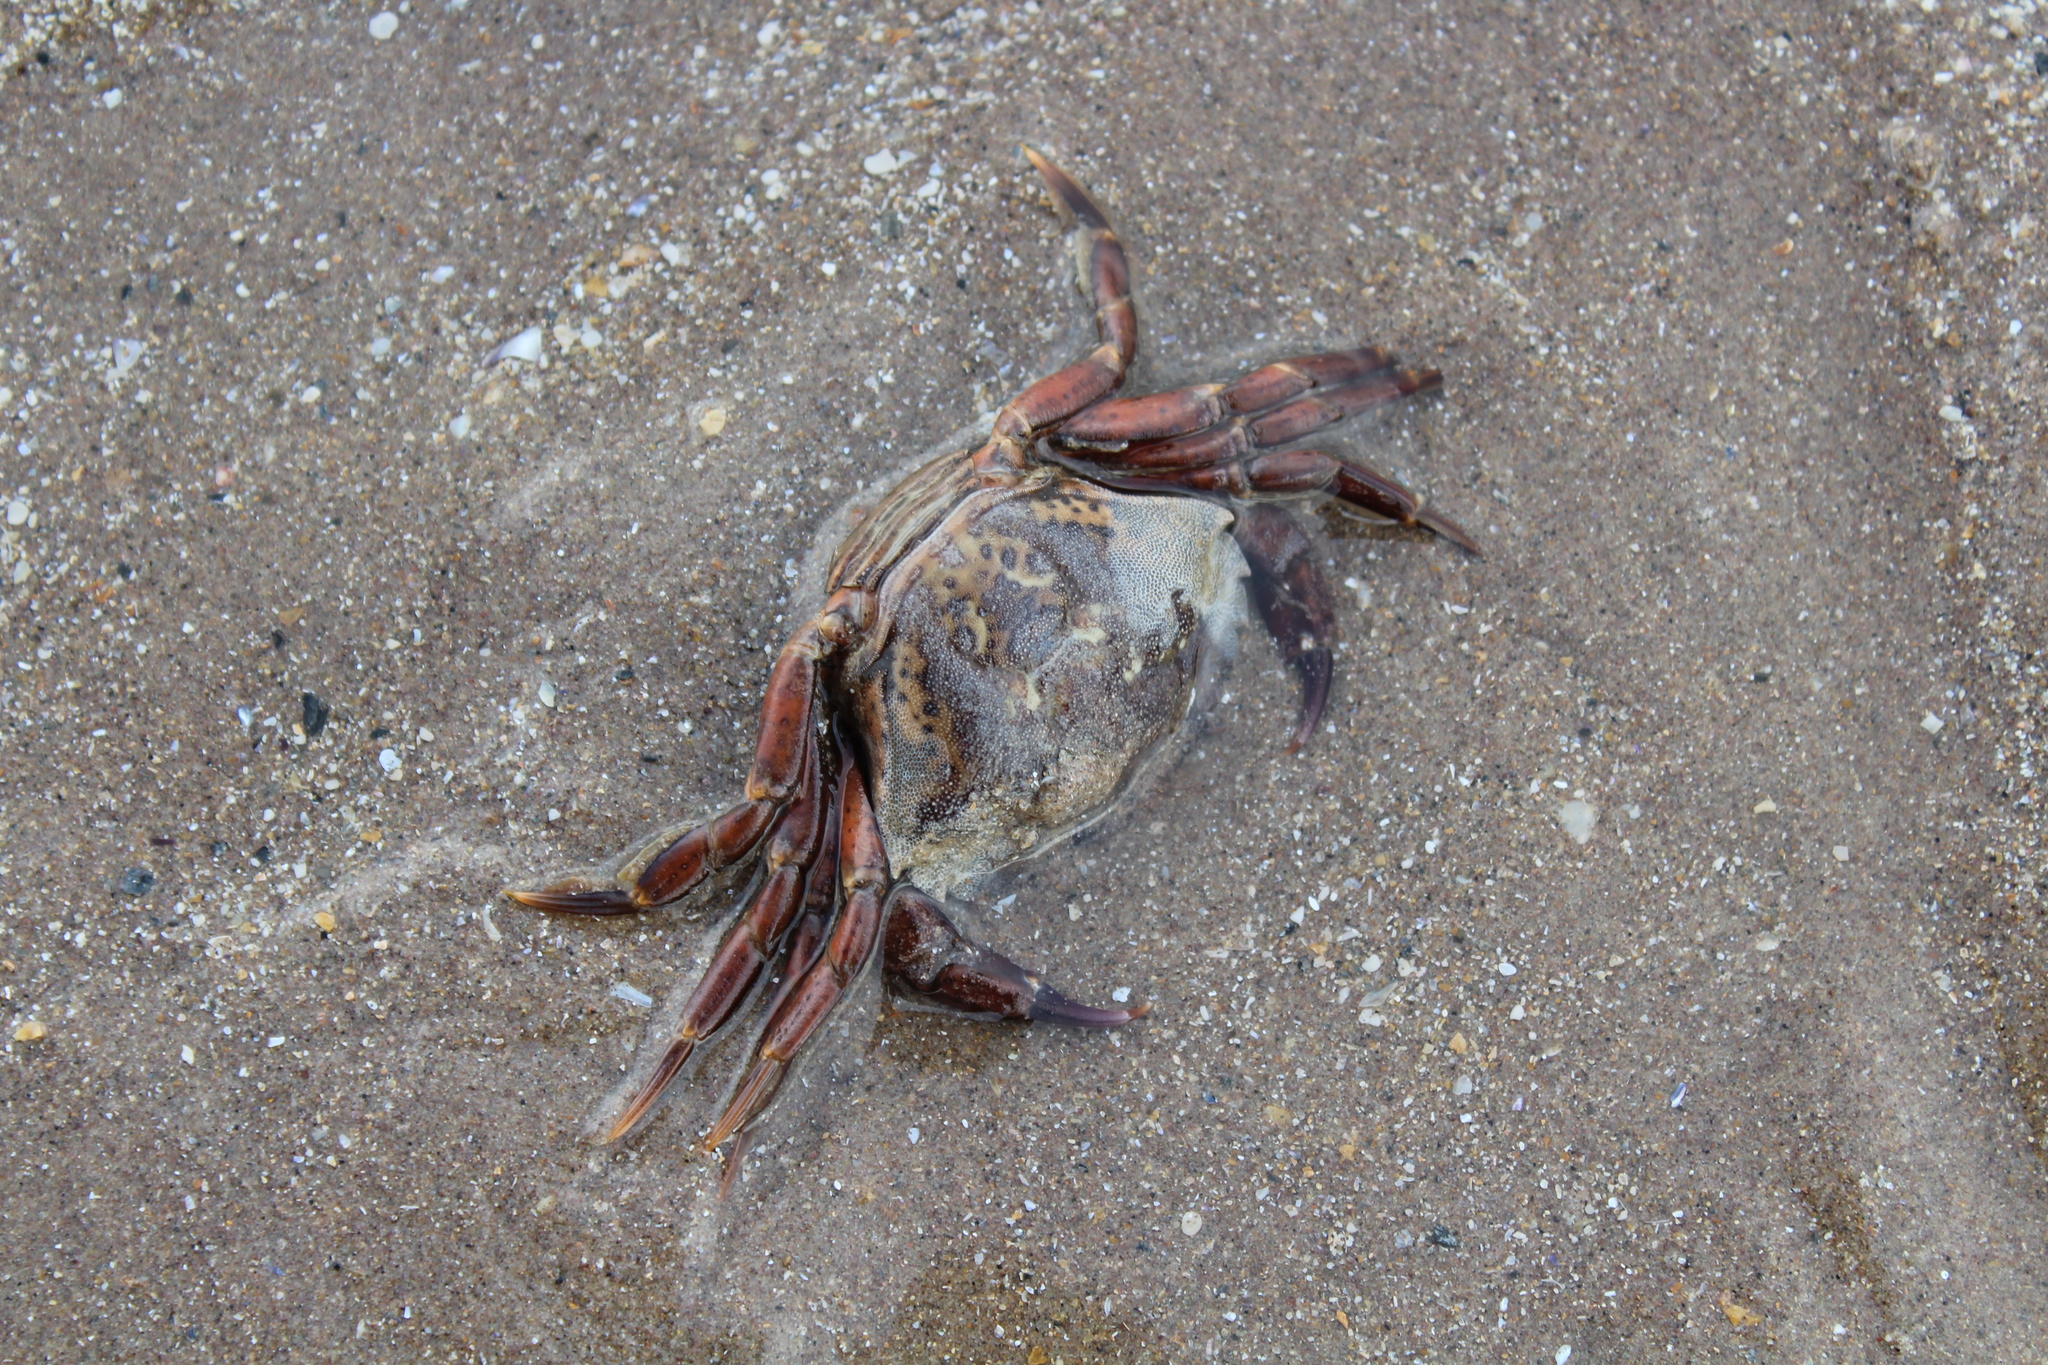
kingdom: Animalia
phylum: Arthropoda
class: Malacostraca
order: Decapoda
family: Carcinidae
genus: Carcinus
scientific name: Carcinus maenas
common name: European green crab
